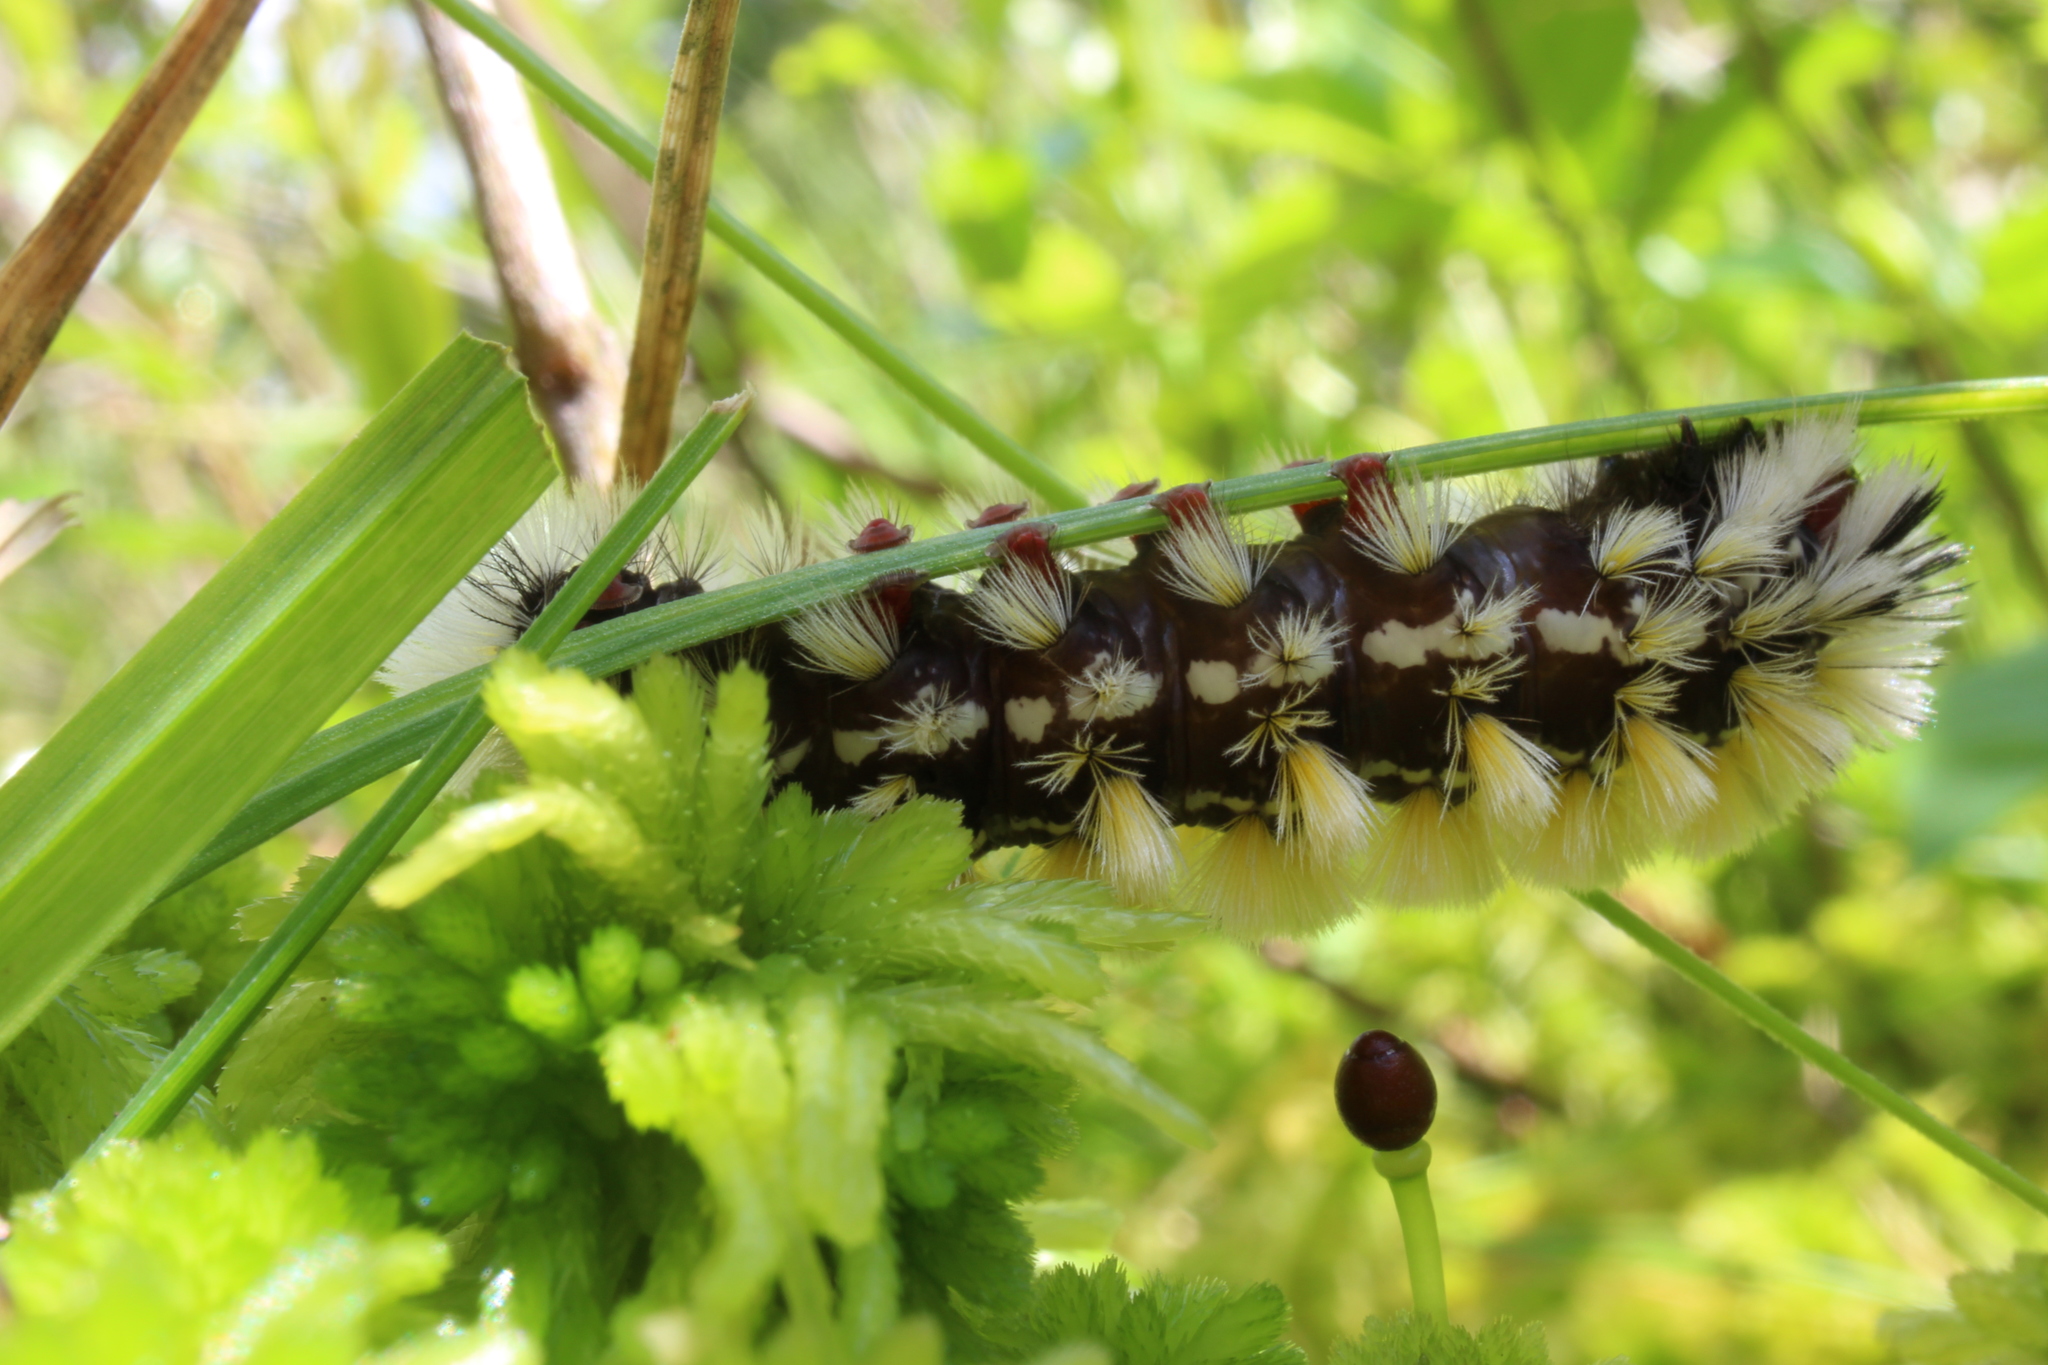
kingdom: Animalia
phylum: Arthropoda
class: Insecta
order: Lepidoptera
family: Erebidae
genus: Ctenucha
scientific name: Ctenucha virginica
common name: Virginia ctenucha moth
